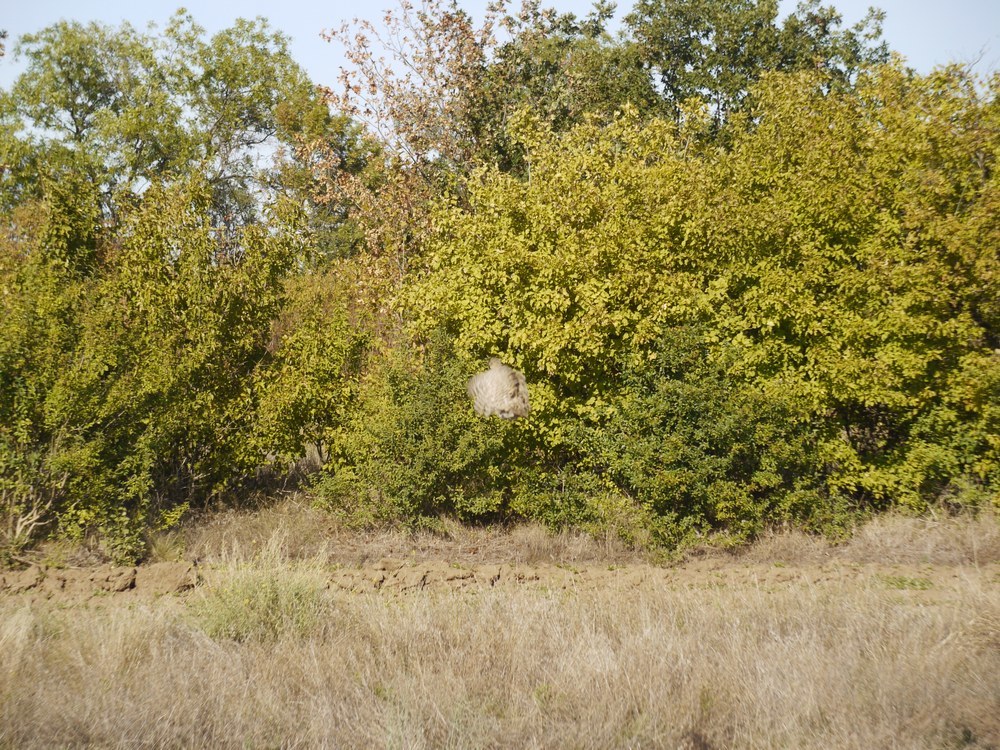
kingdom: Animalia
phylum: Chordata
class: Aves
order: Galliformes
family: Phasianidae
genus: Phasianus
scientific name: Phasianus colchicus
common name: Common pheasant
